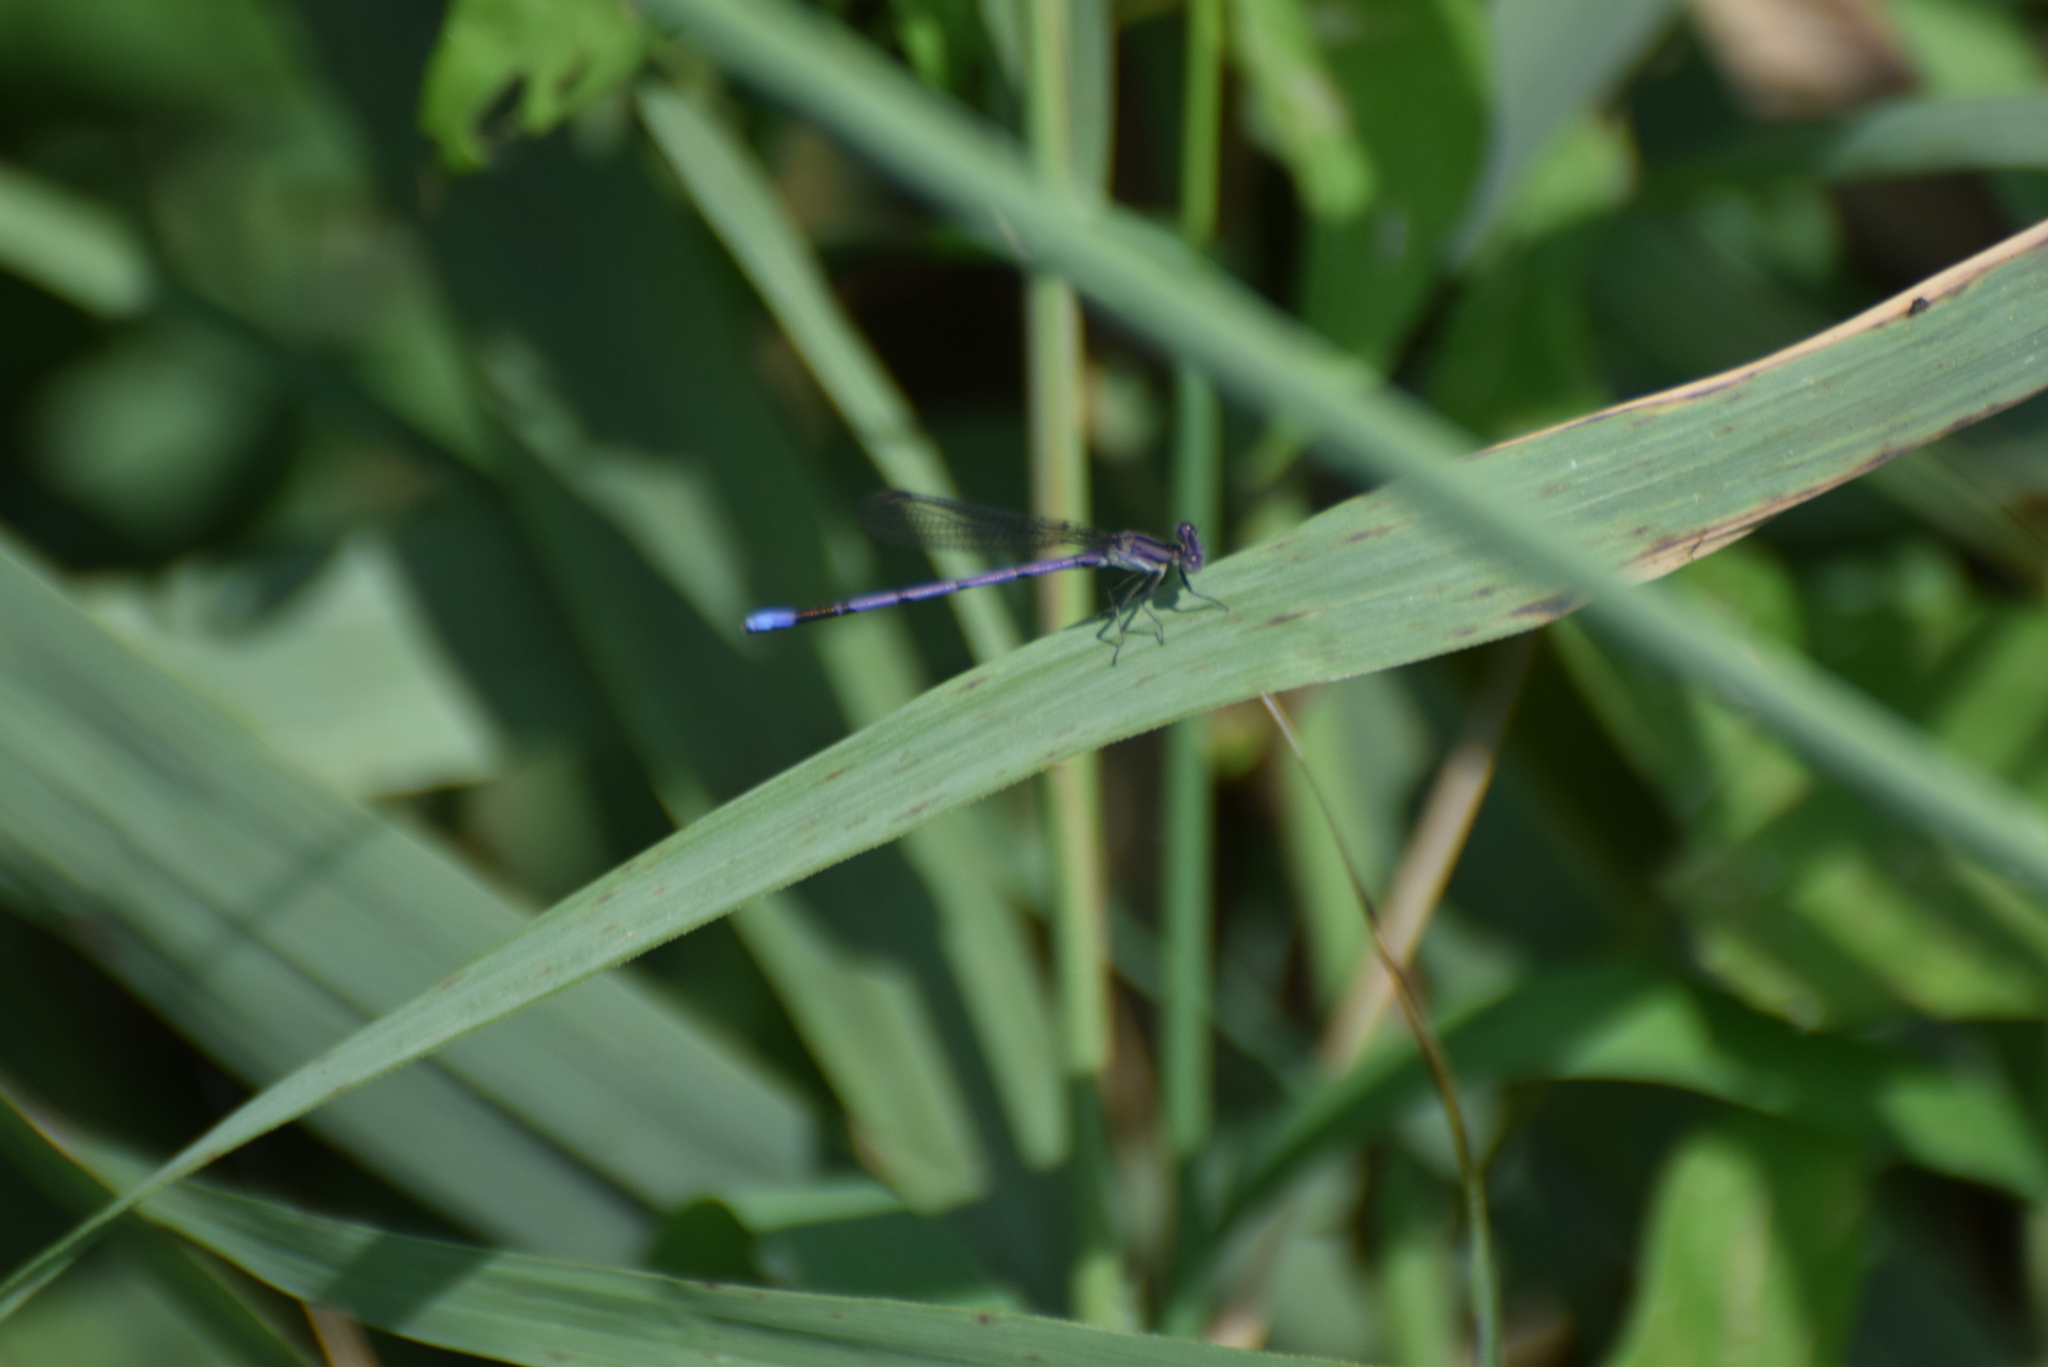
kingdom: Animalia
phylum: Arthropoda
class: Insecta
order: Odonata
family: Coenagrionidae
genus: Argia
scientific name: Argia fumipennis
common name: Variable dancer
